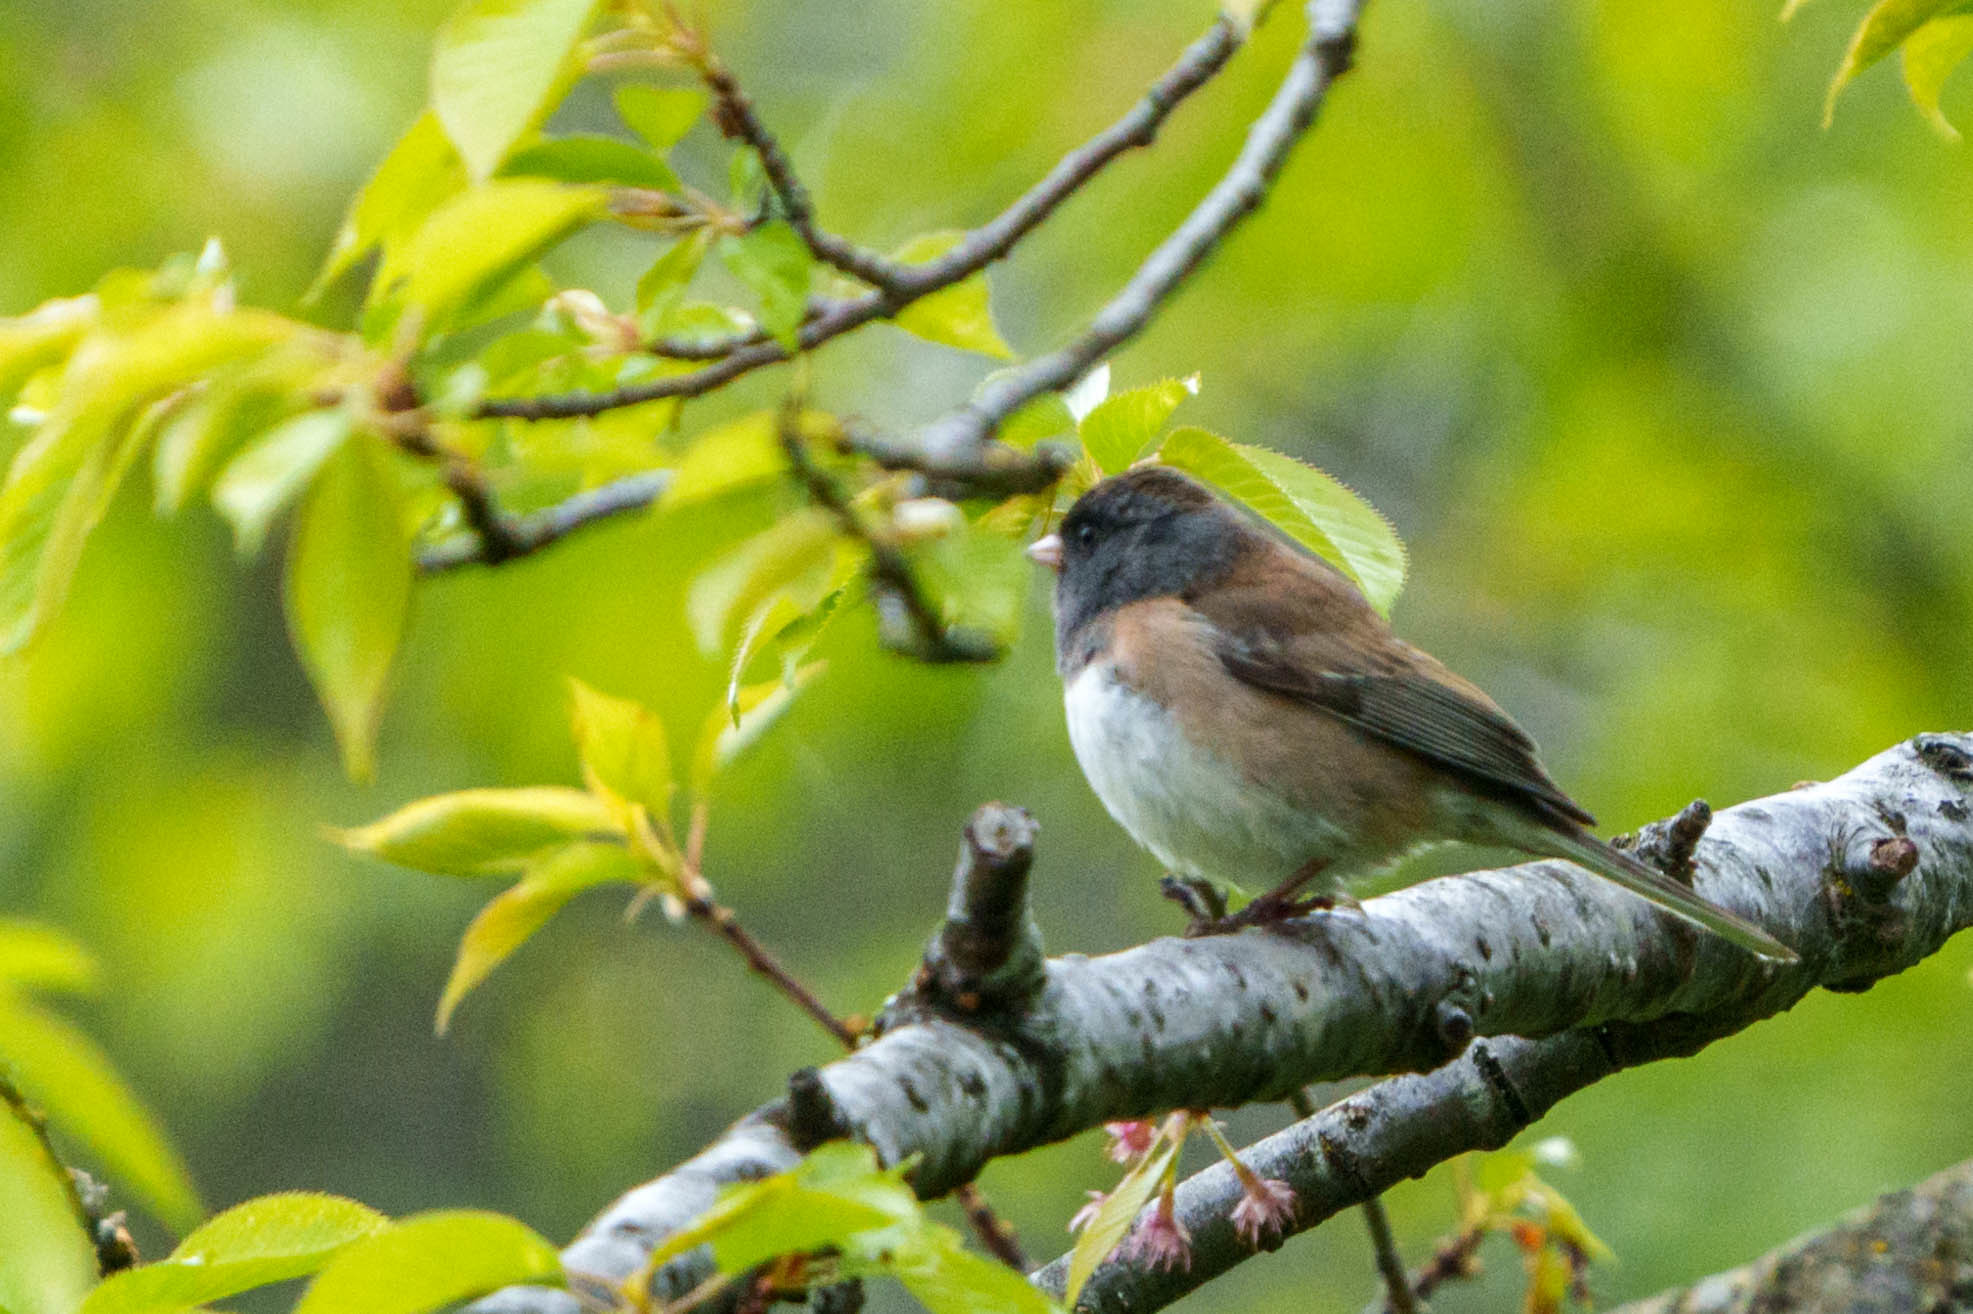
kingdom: Animalia
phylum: Chordata
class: Aves
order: Passeriformes
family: Passerellidae
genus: Junco
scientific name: Junco hyemalis
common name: Dark-eyed junco
